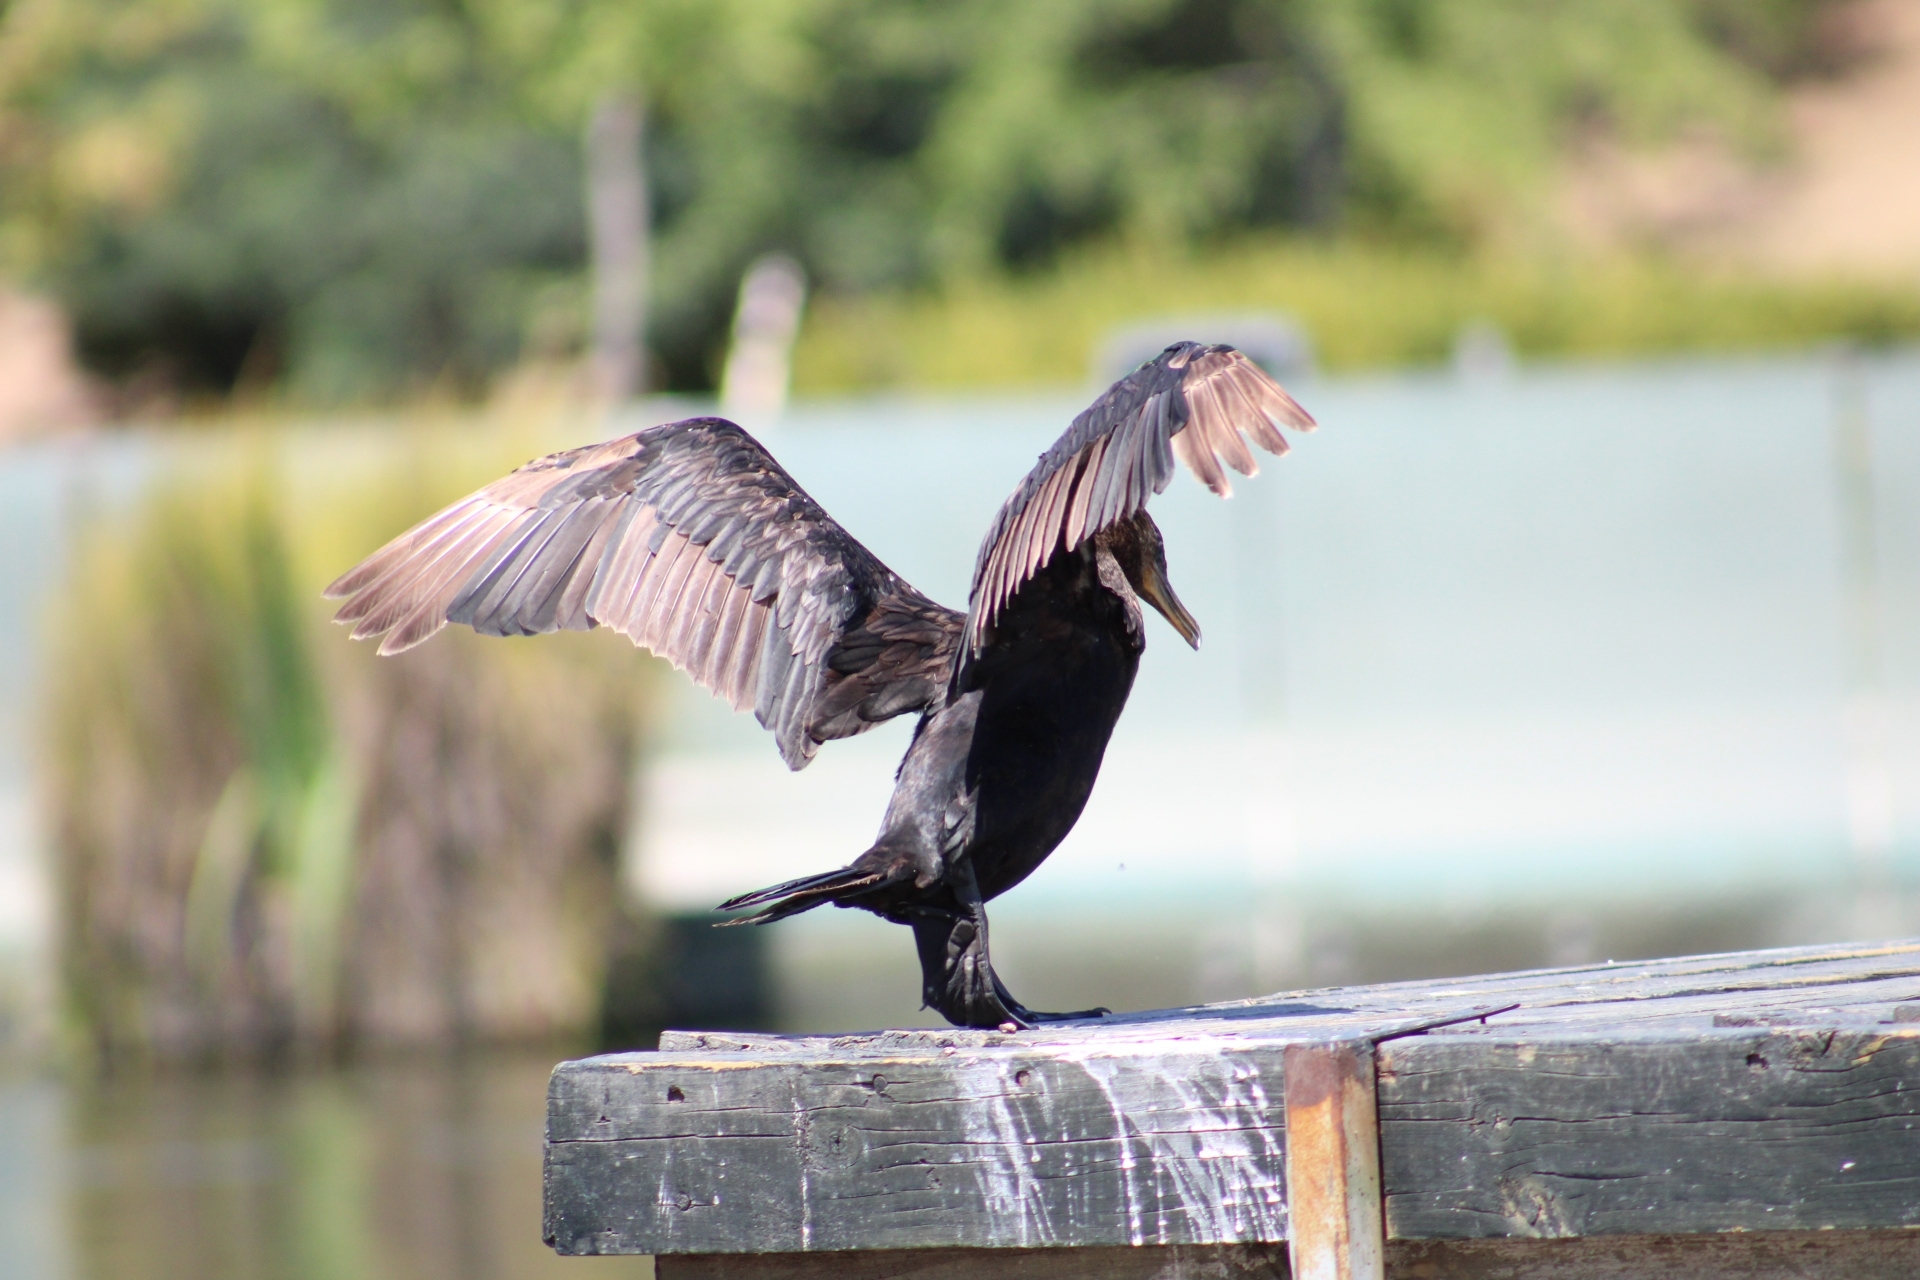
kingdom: Animalia
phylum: Chordata
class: Aves
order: Suliformes
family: Phalacrocoracidae
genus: Phalacrocorax
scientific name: Phalacrocorax brasilianus
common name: Neotropic cormorant
